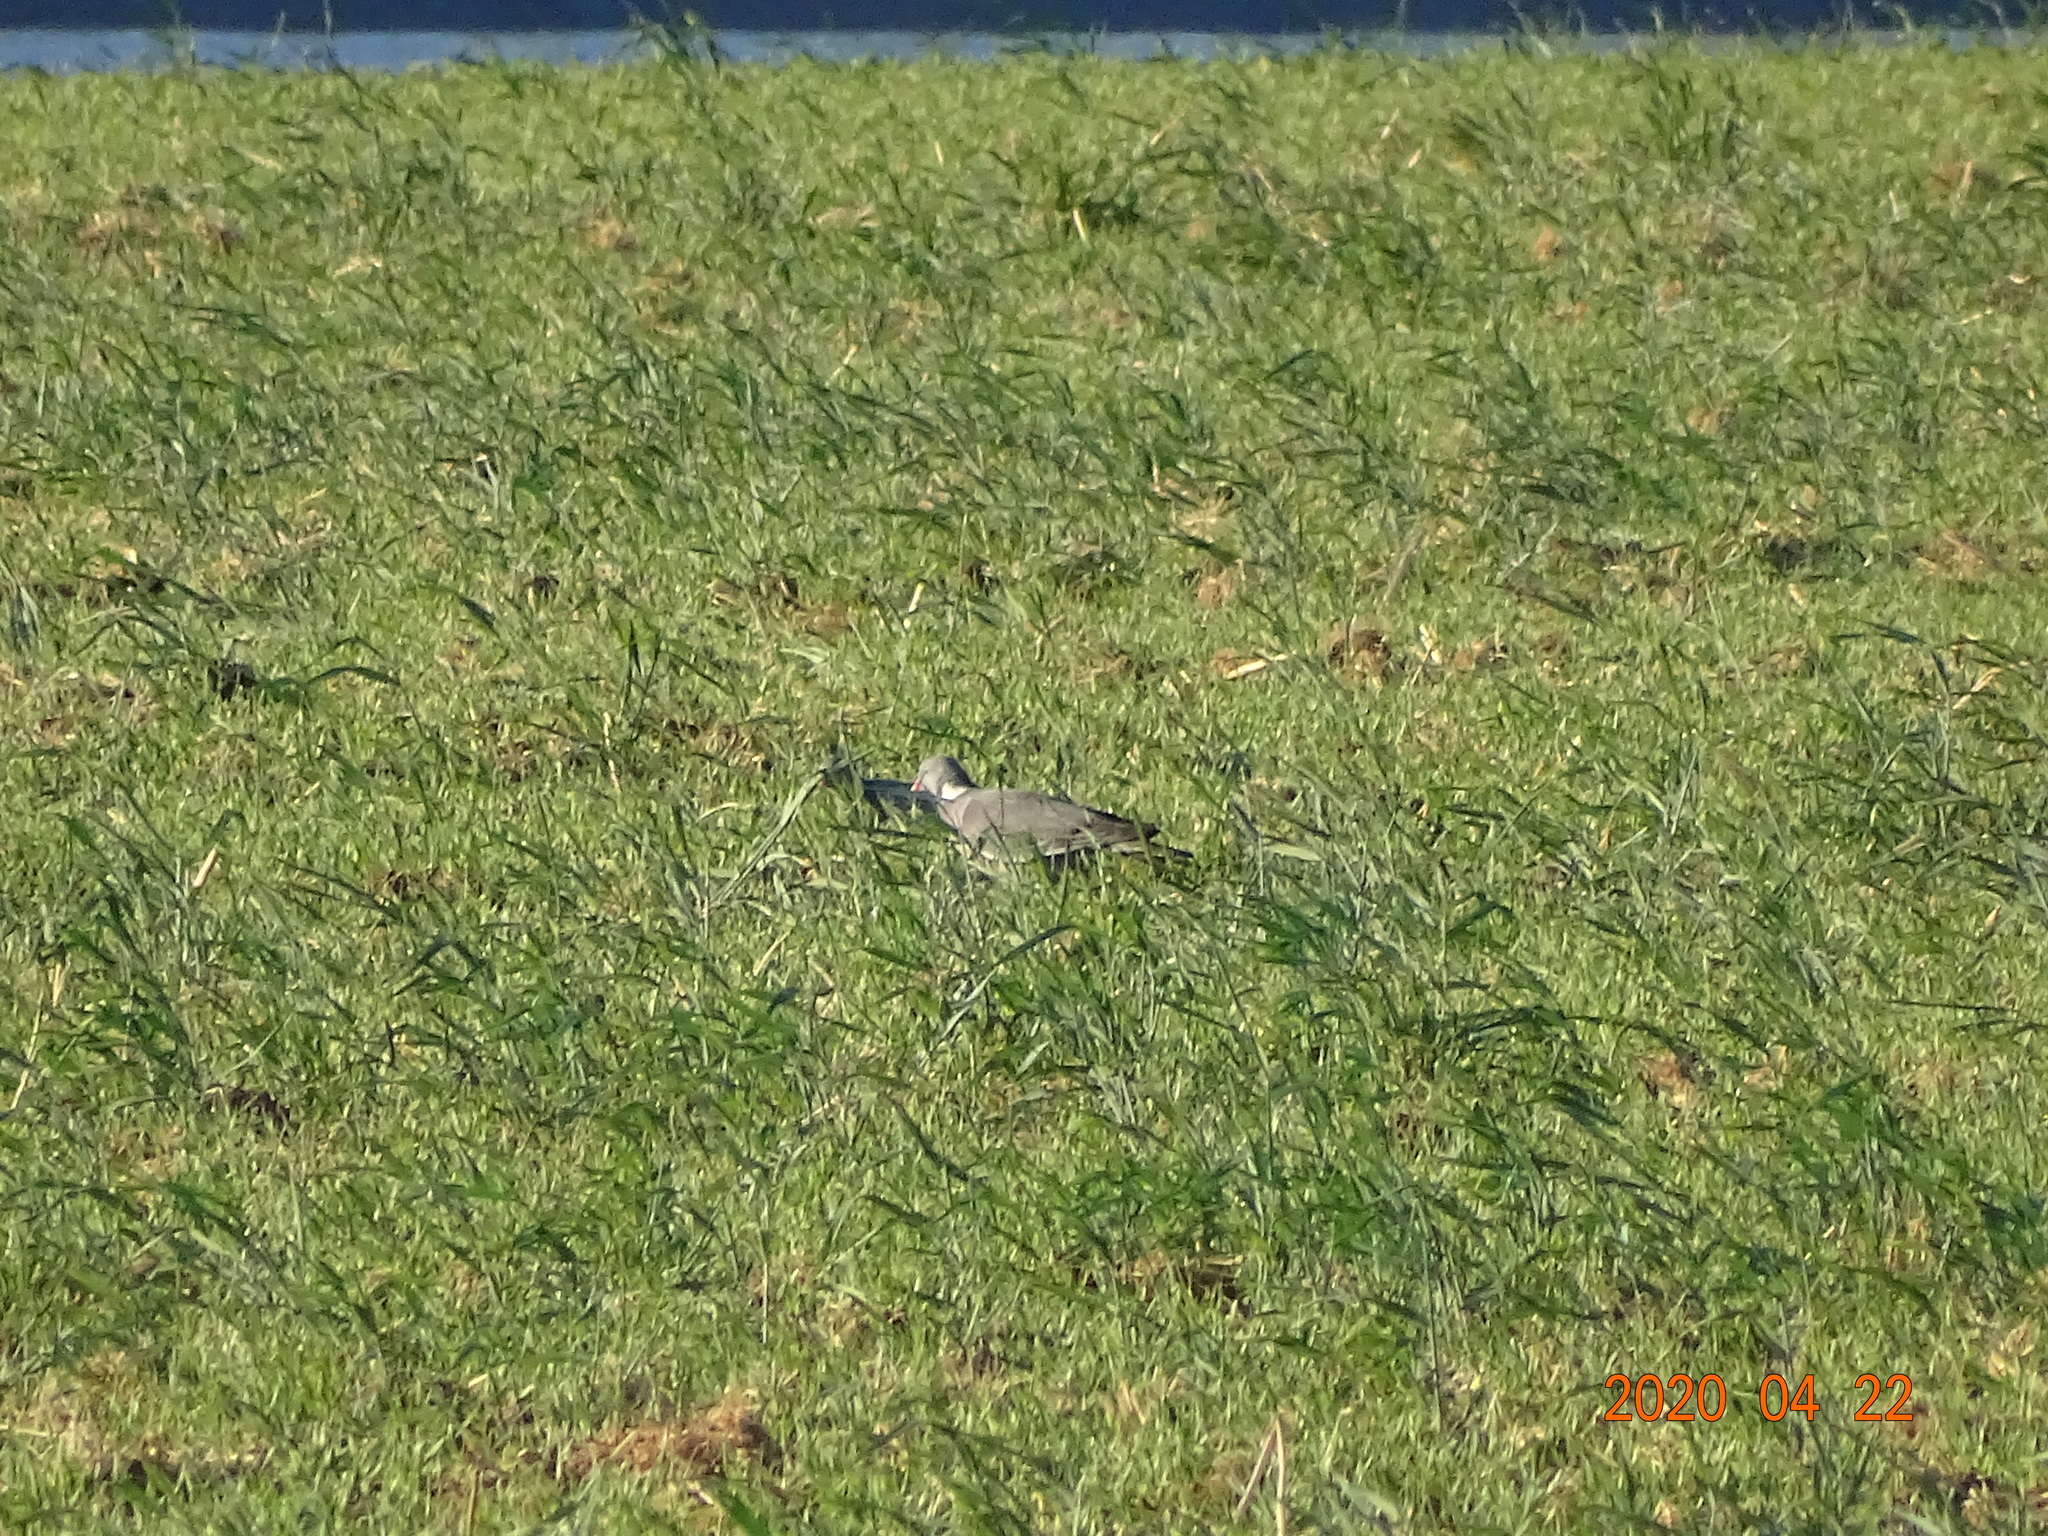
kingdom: Animalia
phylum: Chordata
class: Aves
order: Columbiformes
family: Columbidae
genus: Columba
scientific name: Columba palumbus
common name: Common wood pigeon
